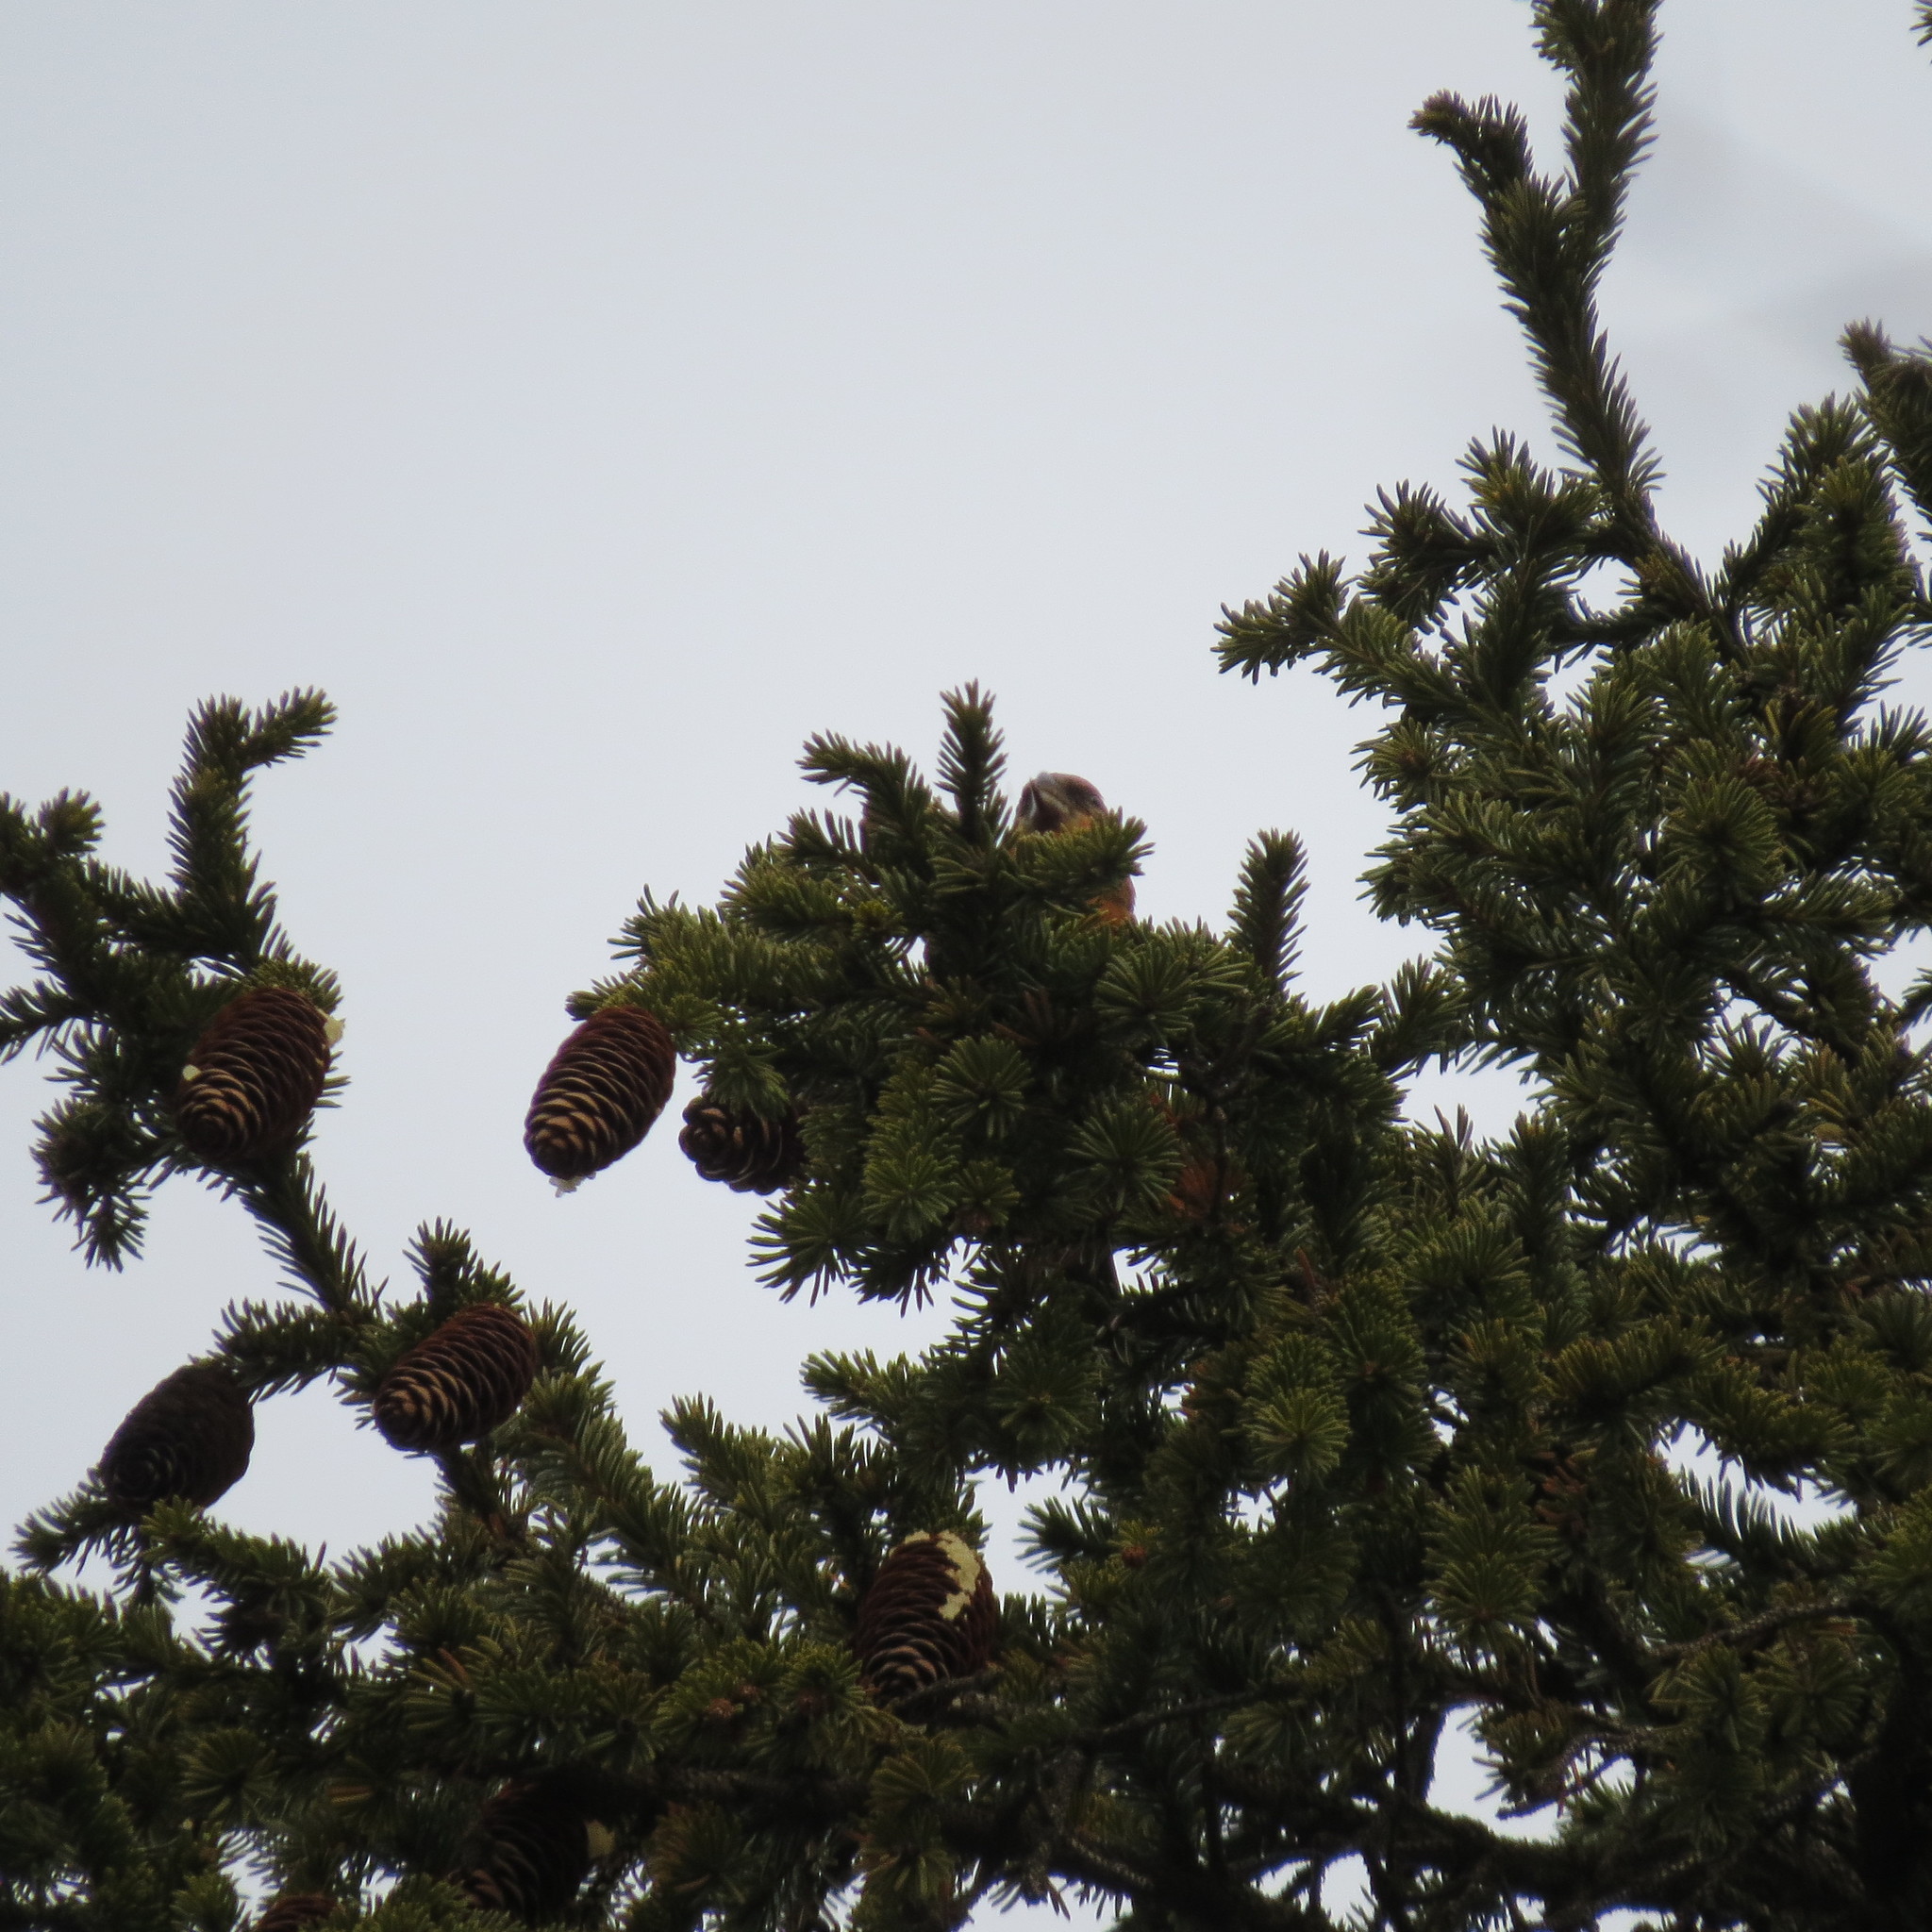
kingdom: Animalia
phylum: Chordata
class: Aves
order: Passeriformes
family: Fringillidae
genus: Loxia
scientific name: Loxia curvirostra
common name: Red crossbill
